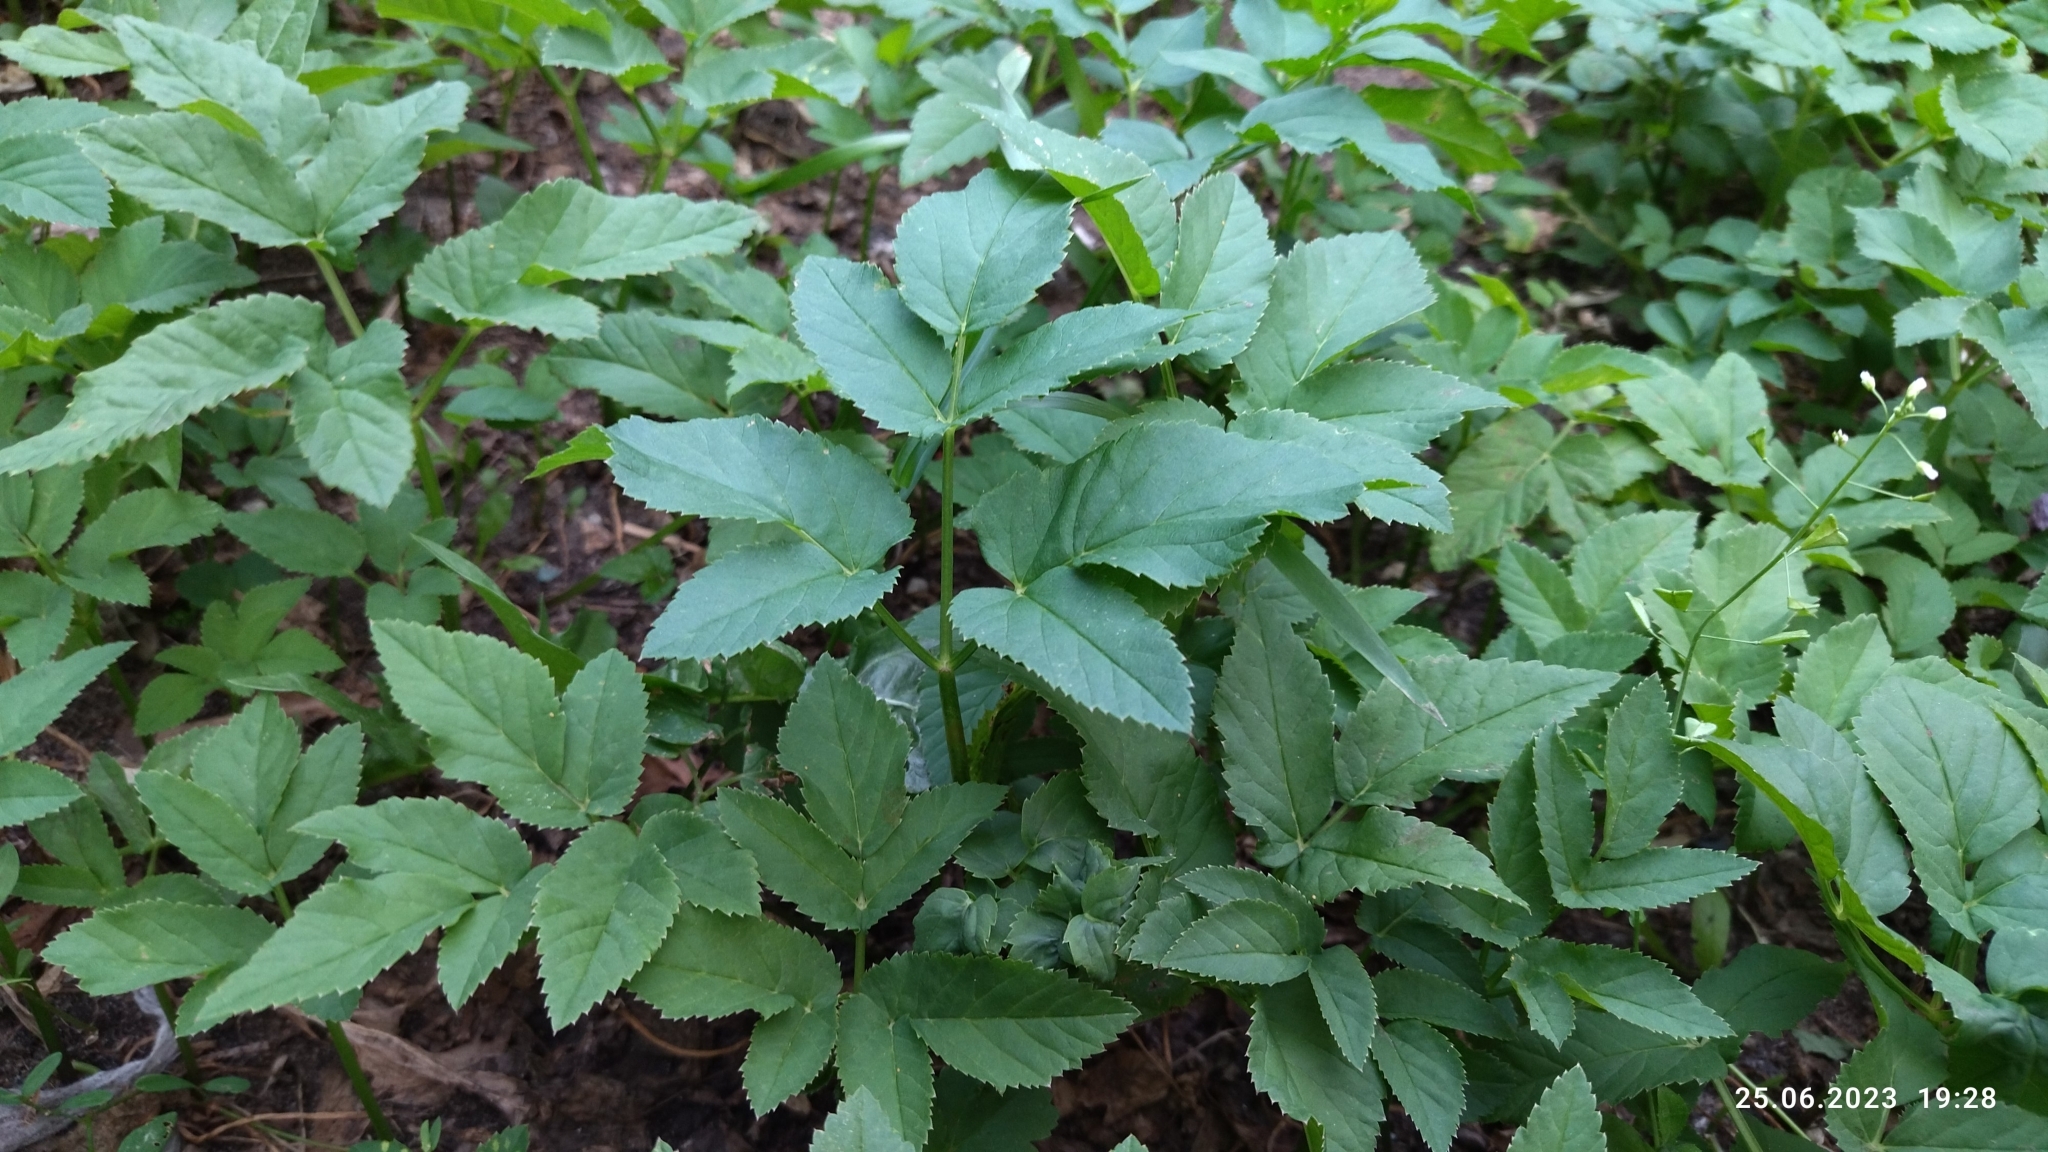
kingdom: Plantae
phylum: Tracheophyta
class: Magnoliopsida
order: Apiales
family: Apiaceae
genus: Aegopodium
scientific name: Aegopodium podagraria
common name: Ground-elder
